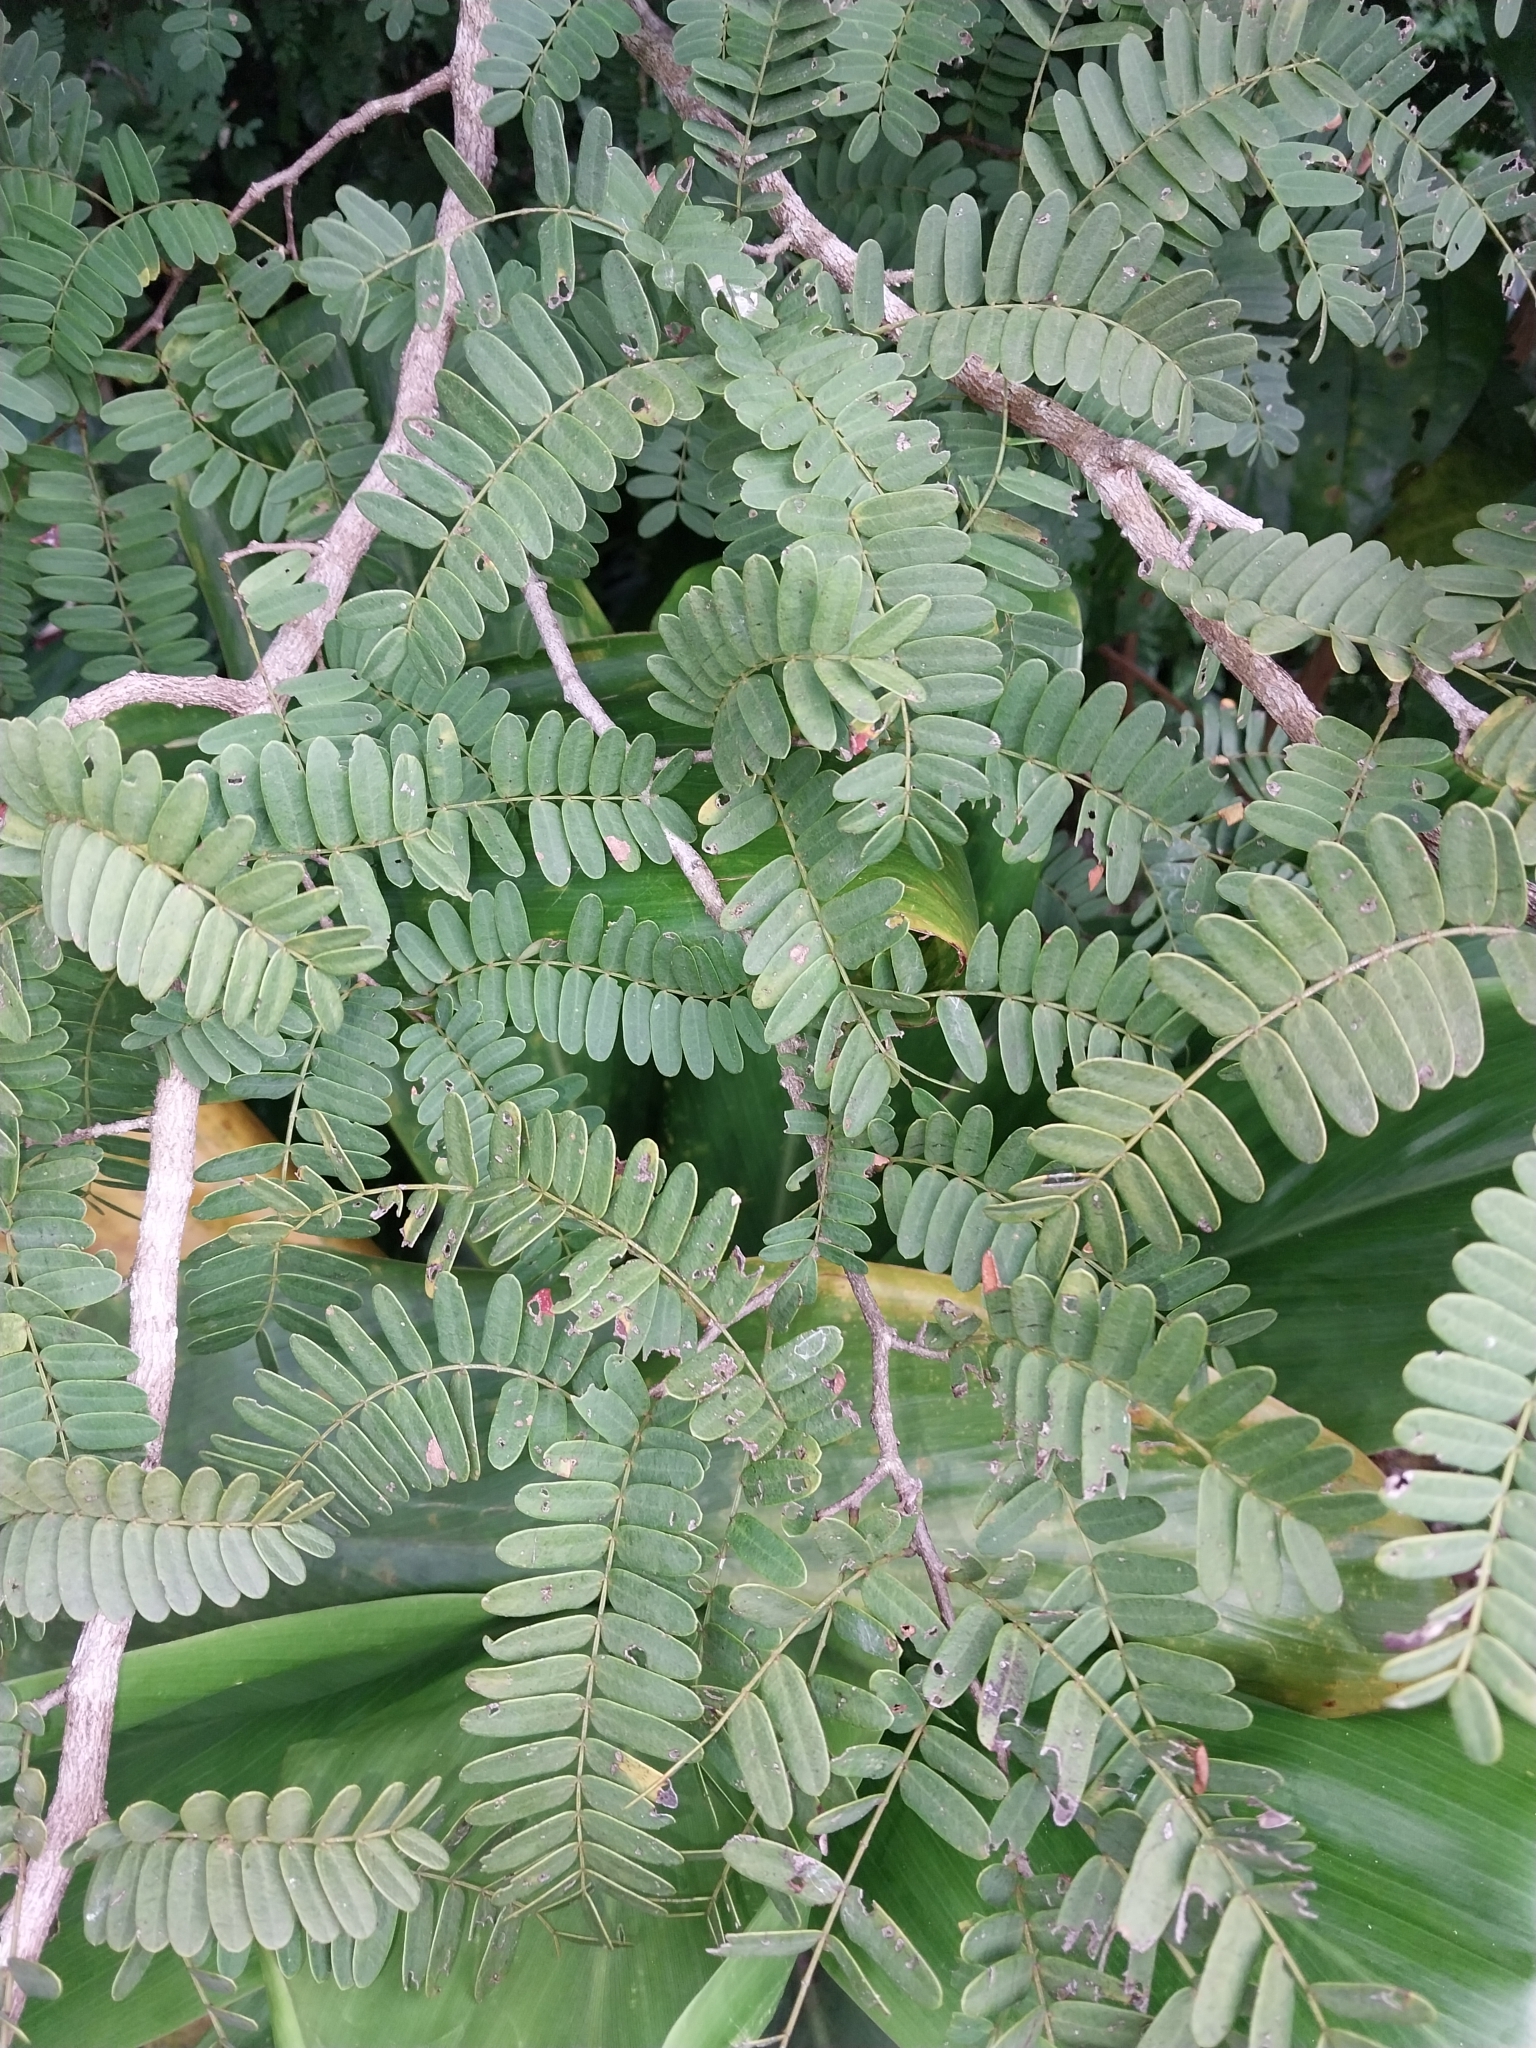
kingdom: Plantae
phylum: Tracheophyta
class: Magnoliopsida
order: Fabales
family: Fabaceae
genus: Tamarindus
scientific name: Tamarindus indica
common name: Tamarind
